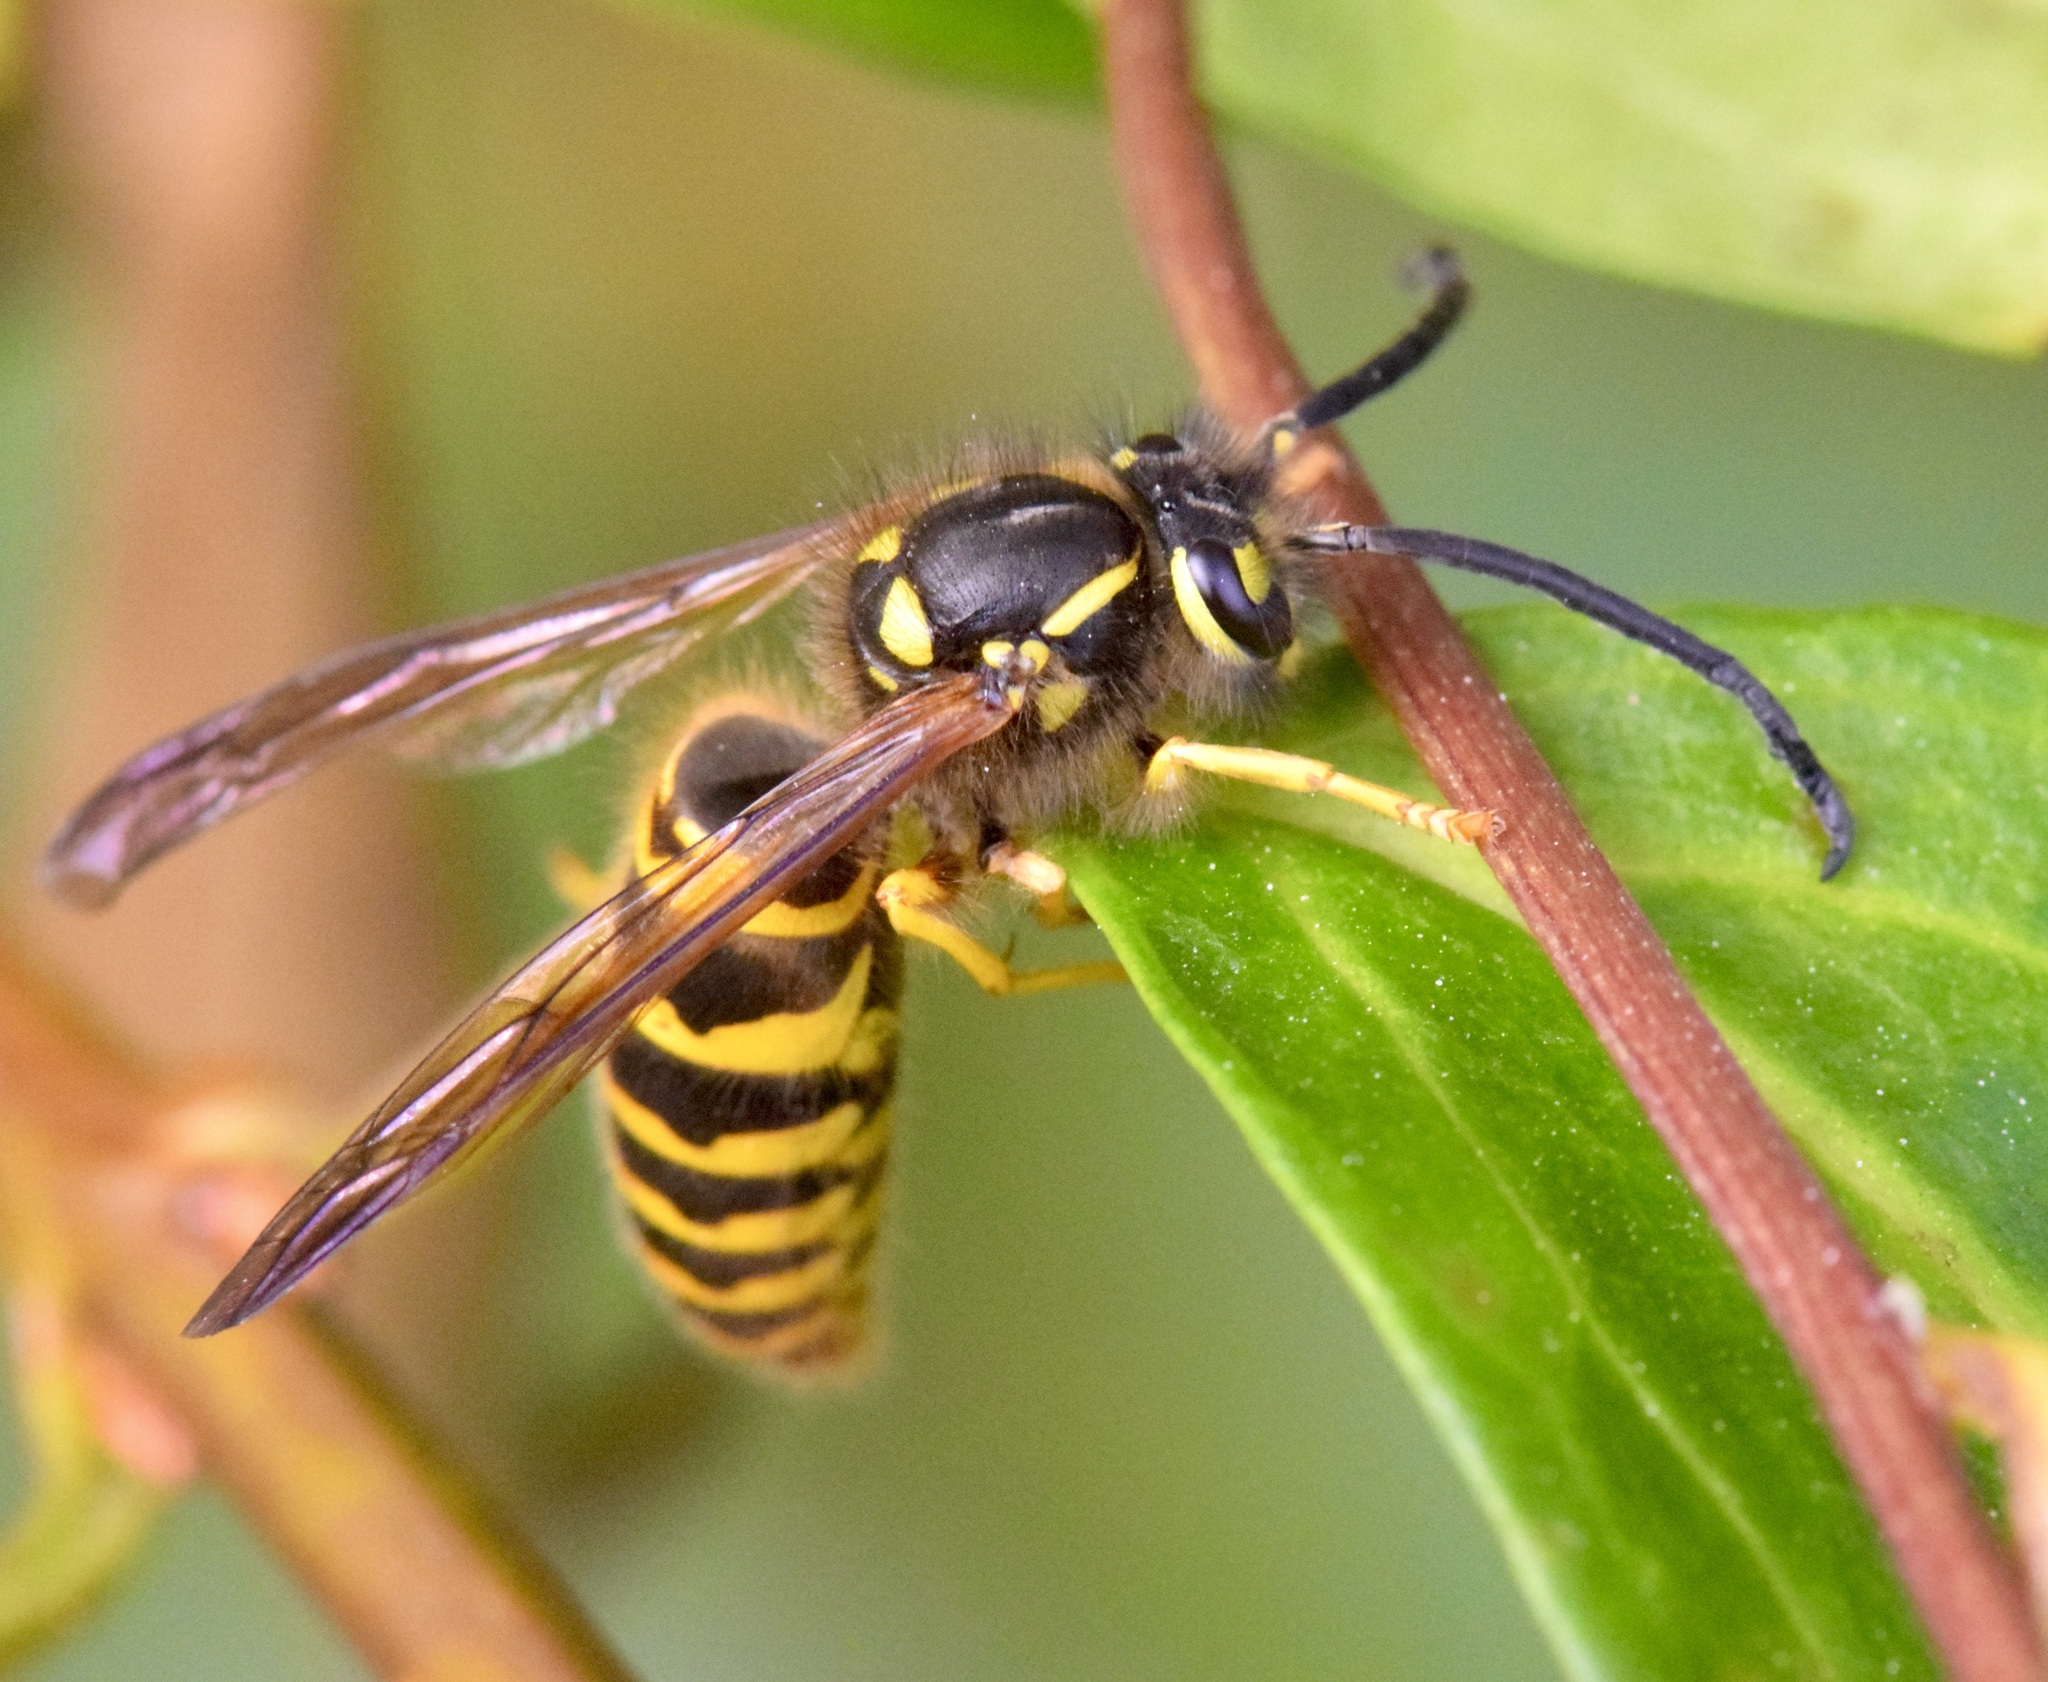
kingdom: Animalia
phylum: Arthropoda
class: Insecta
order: Hymenoptera
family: Vespidae
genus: Vespula
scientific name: Vespula maculifrons
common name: Eastern yellowjacket
